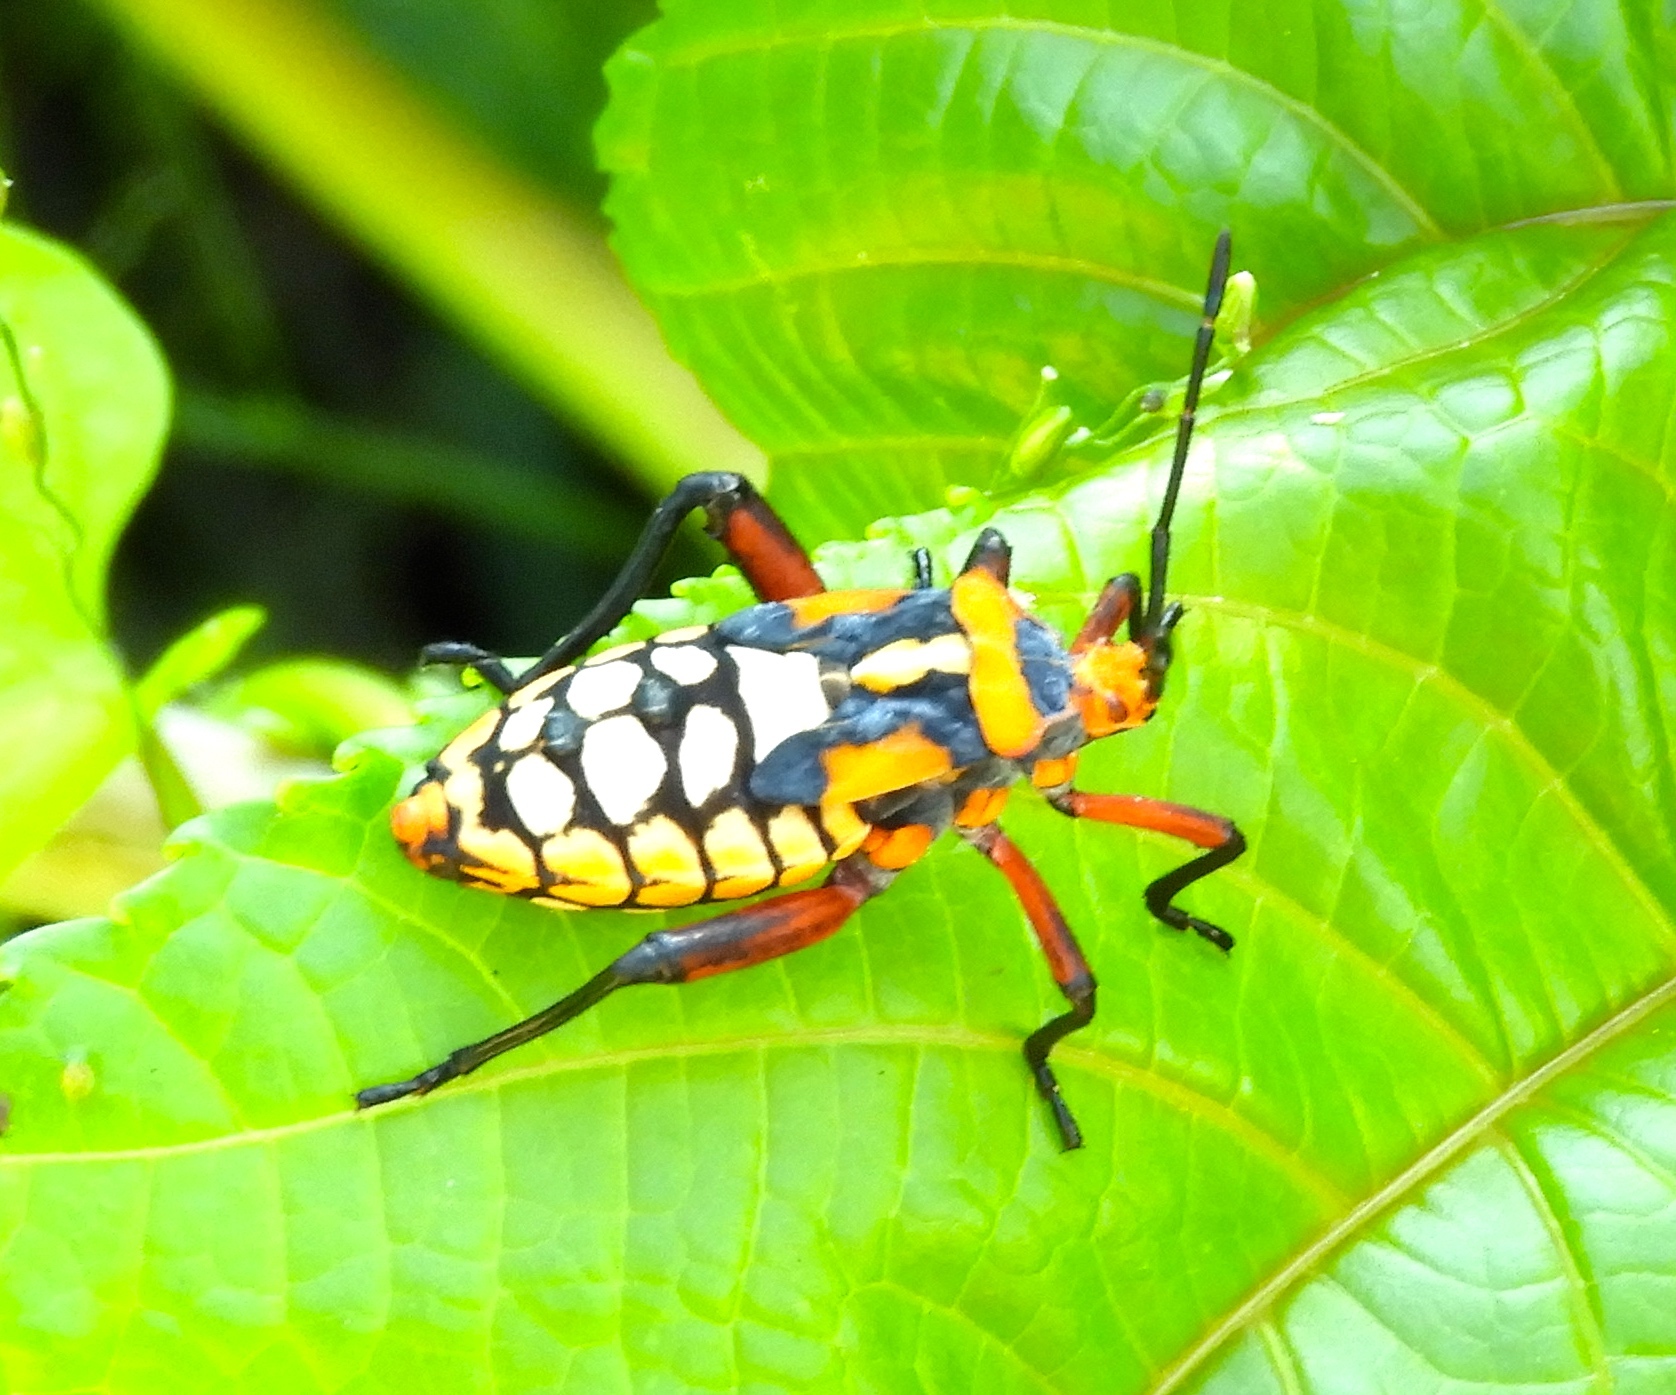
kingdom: Animalia
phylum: Arthropoda
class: Insecta
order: Hemiptera
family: Coreidae
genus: Sagotylus
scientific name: Sagotylus confluens
